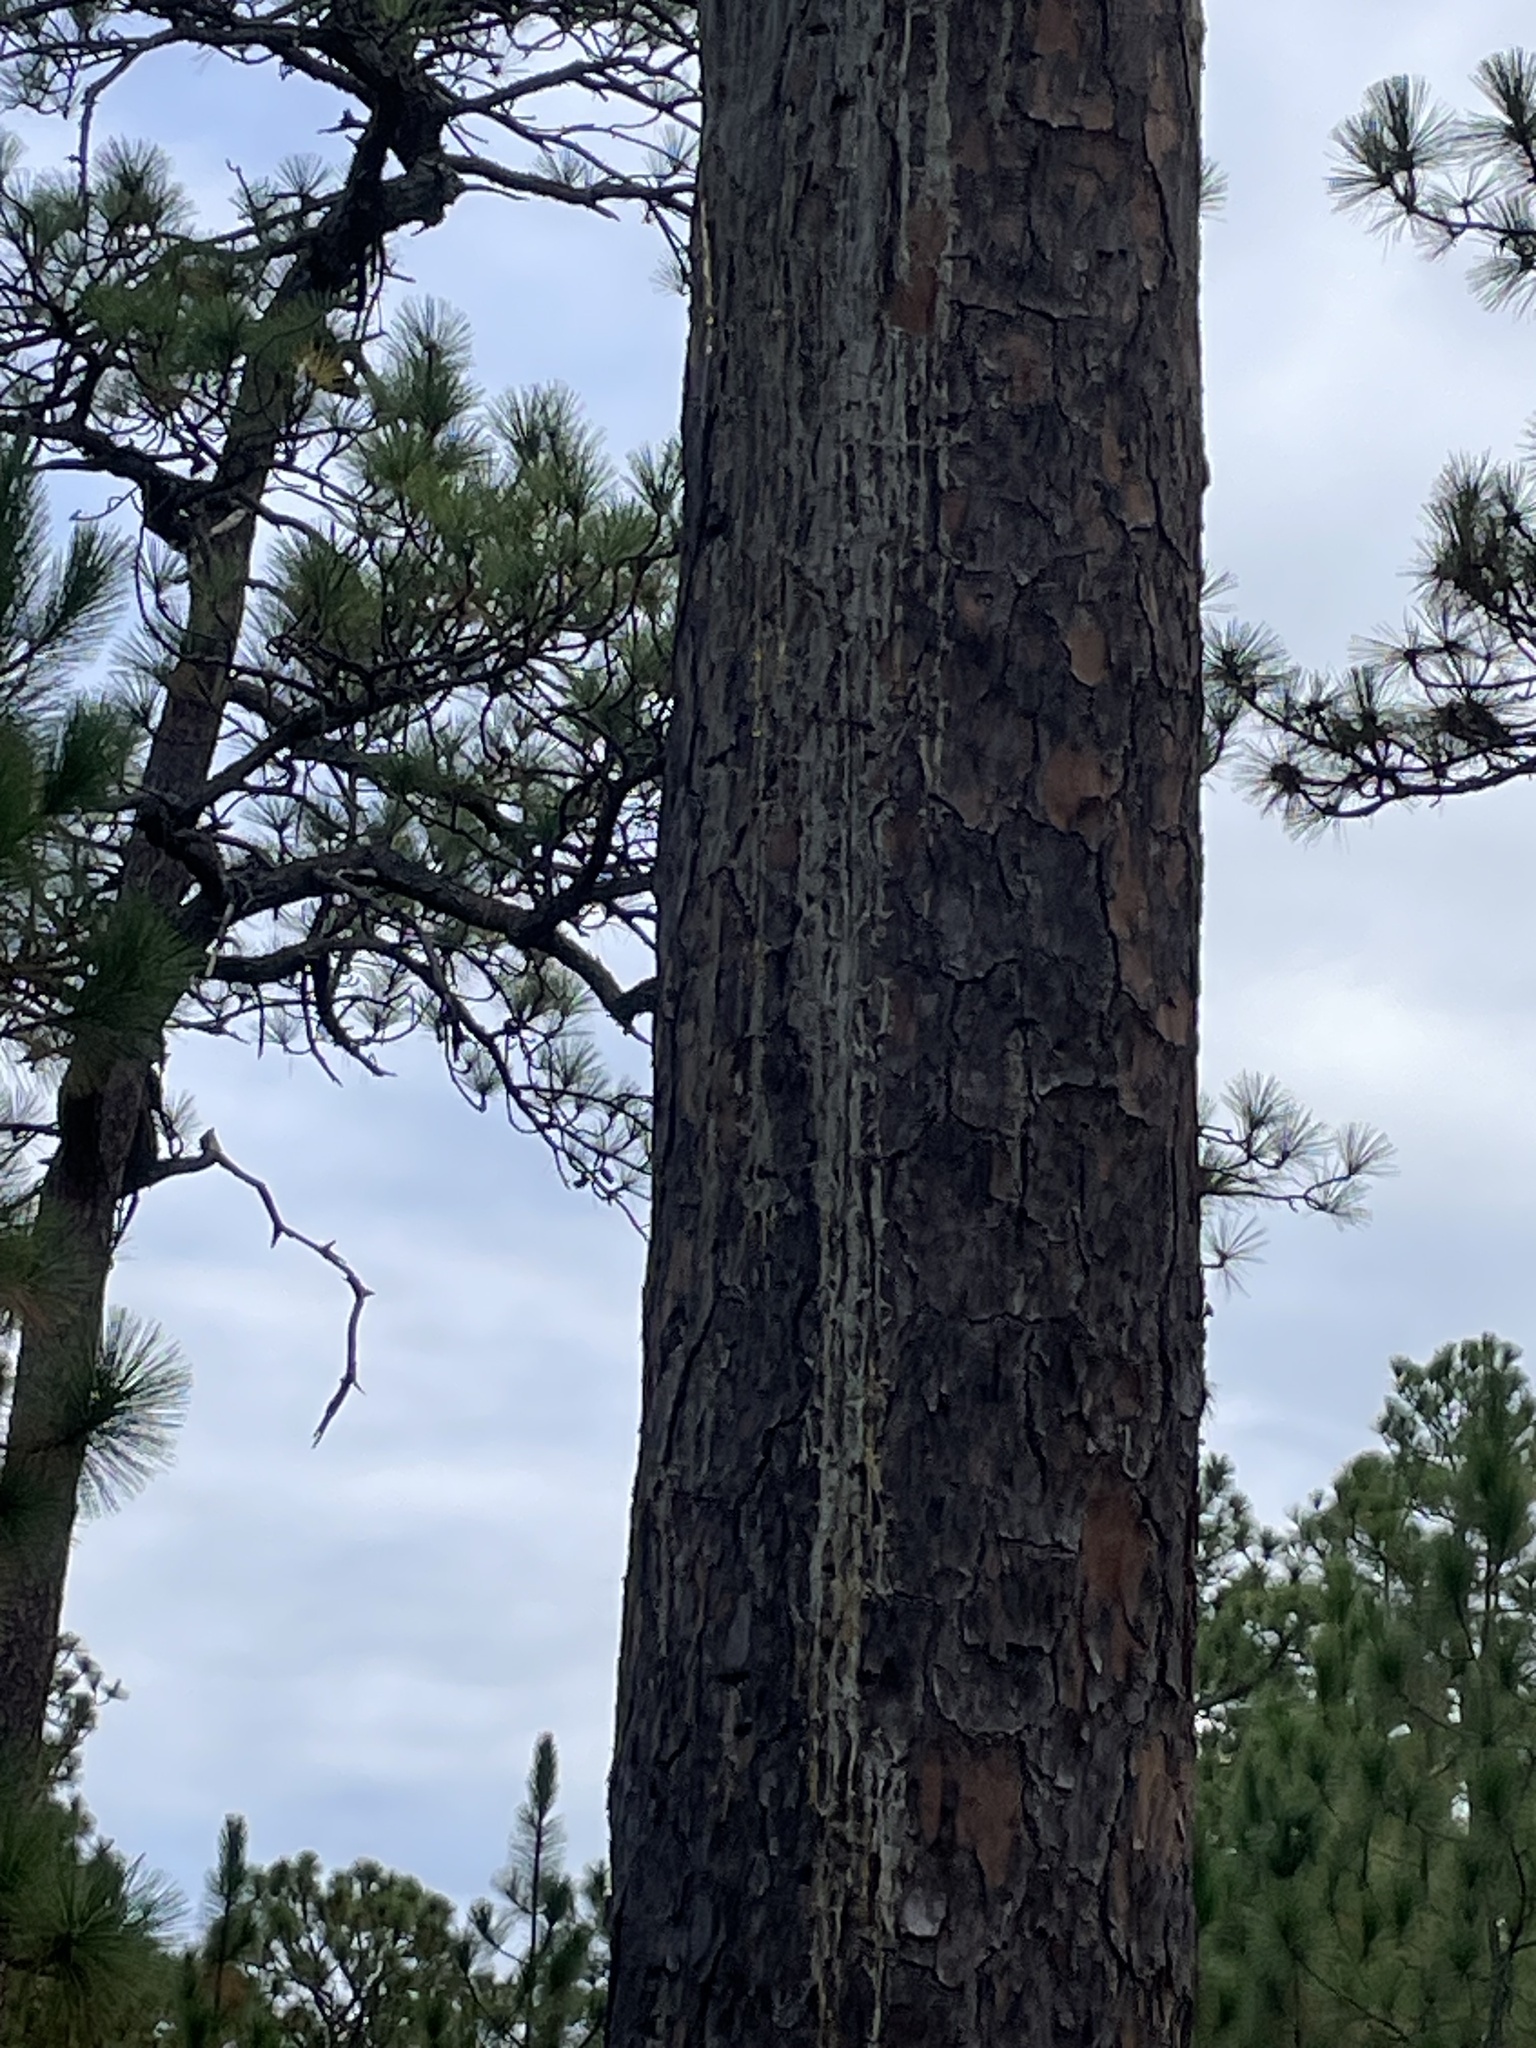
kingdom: Animalia
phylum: Chordata
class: Aves
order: Piciformes
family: Picidae
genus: Leuconotopicus
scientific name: Leuconotopicus borealis
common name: Red-cockaded woodpecker
